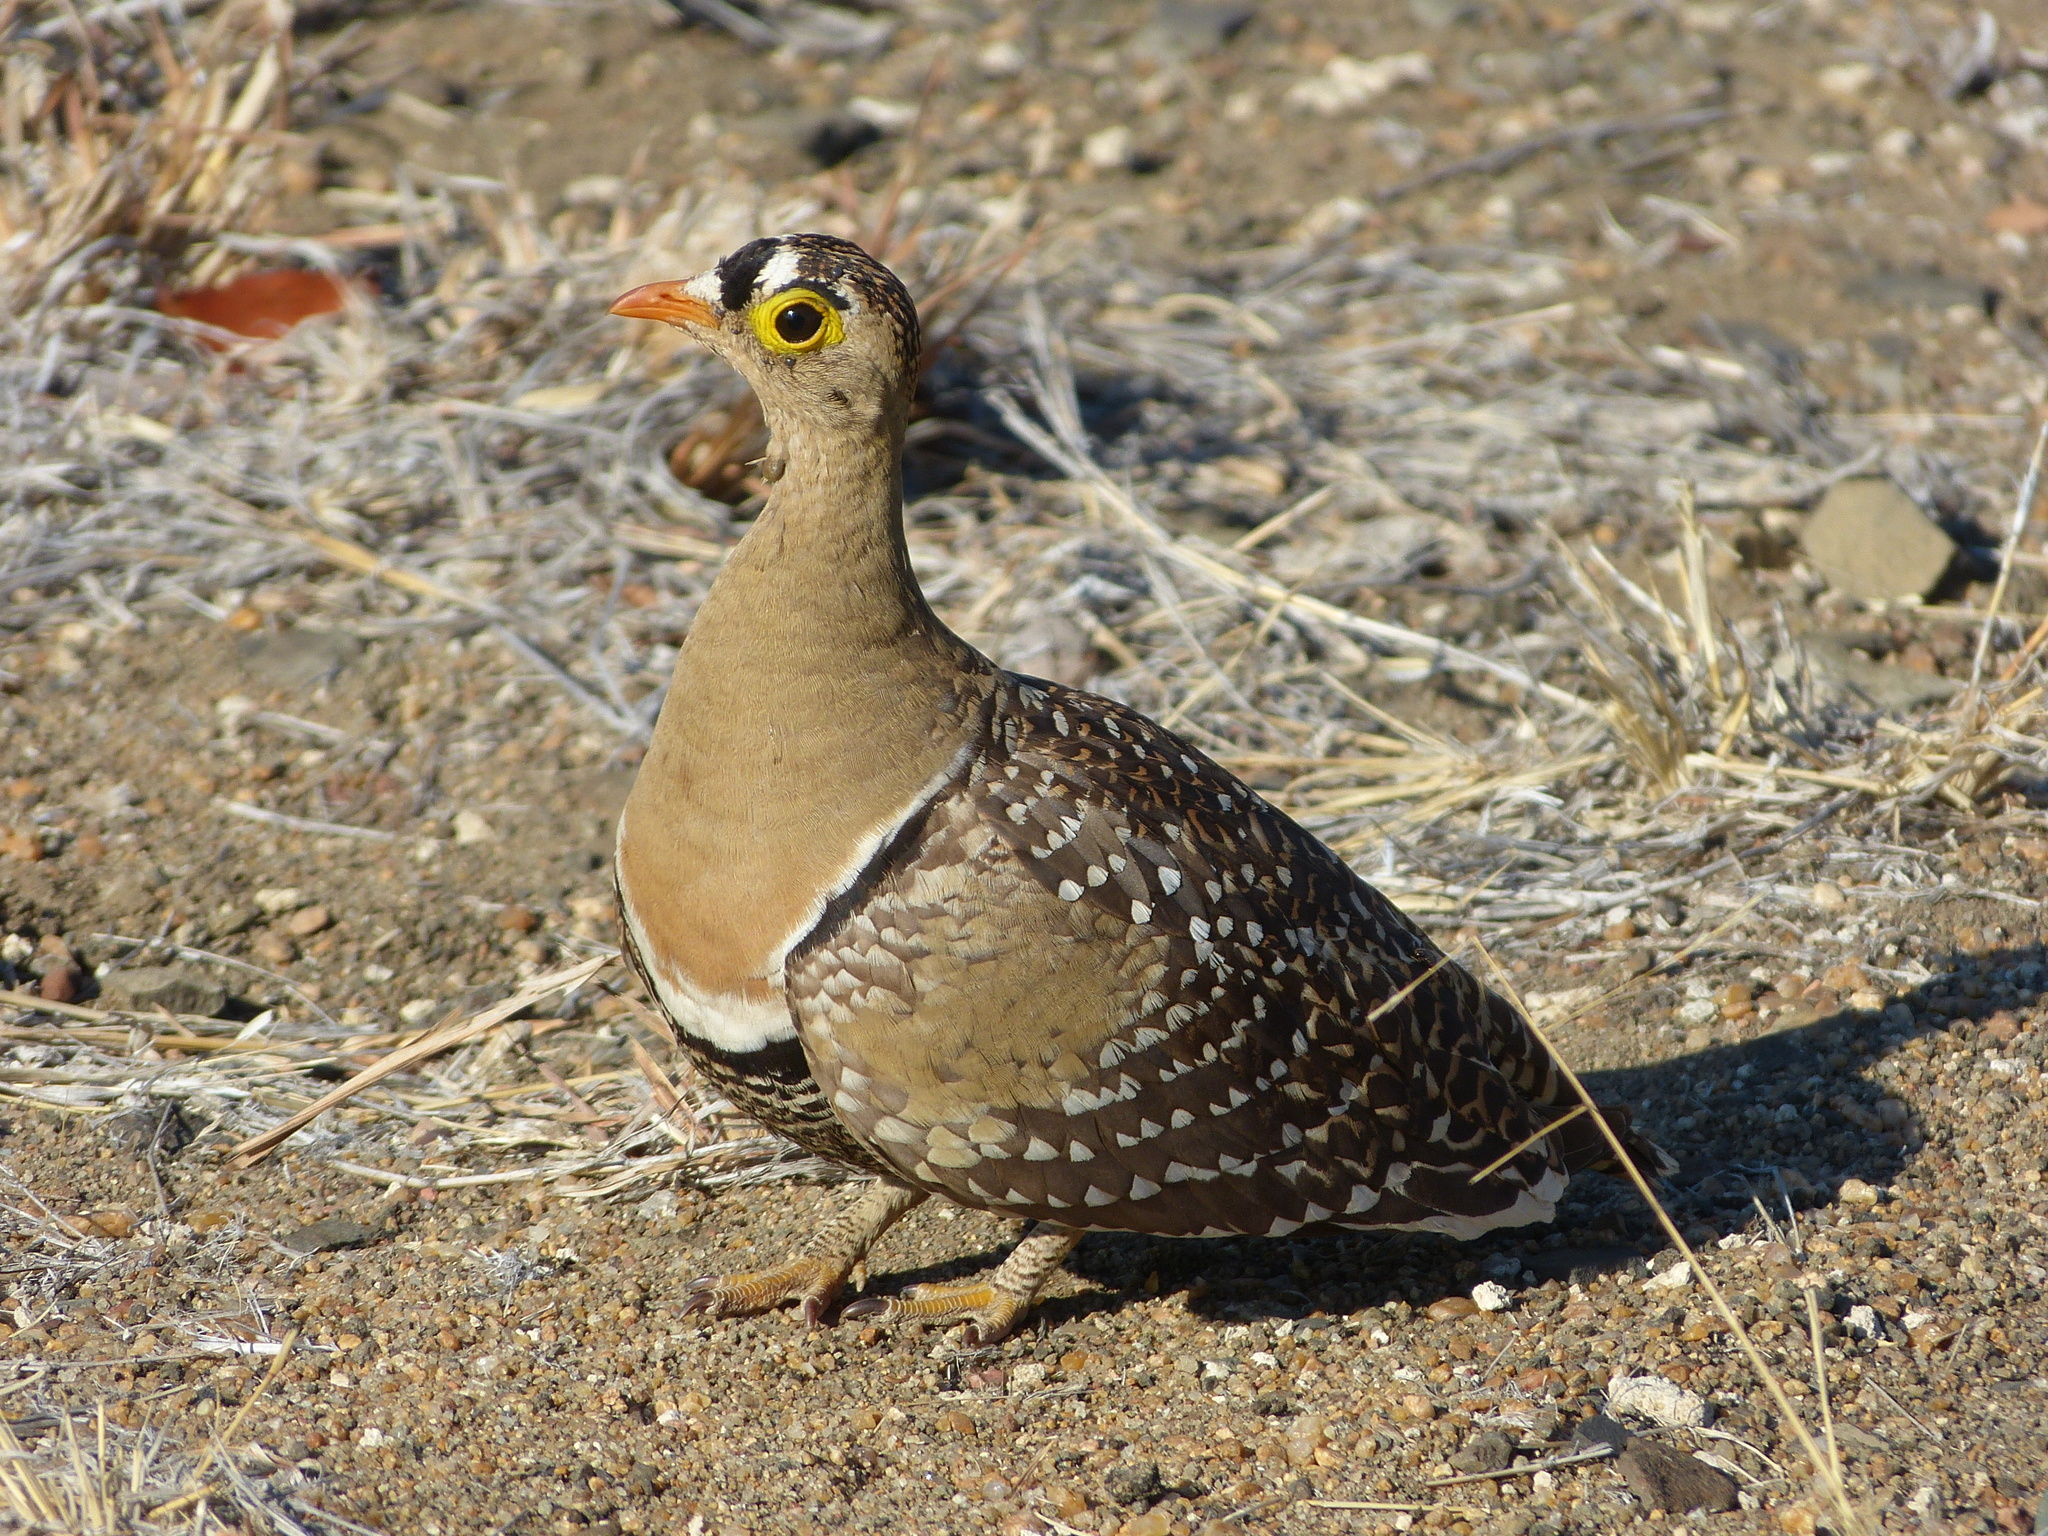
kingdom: Animalia
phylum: Chordata
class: Aves
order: Pteroclidiformes
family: Pteroclididae
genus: Pterocles
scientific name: Pterocles bicinctus
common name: Double-banded sandgrouse
